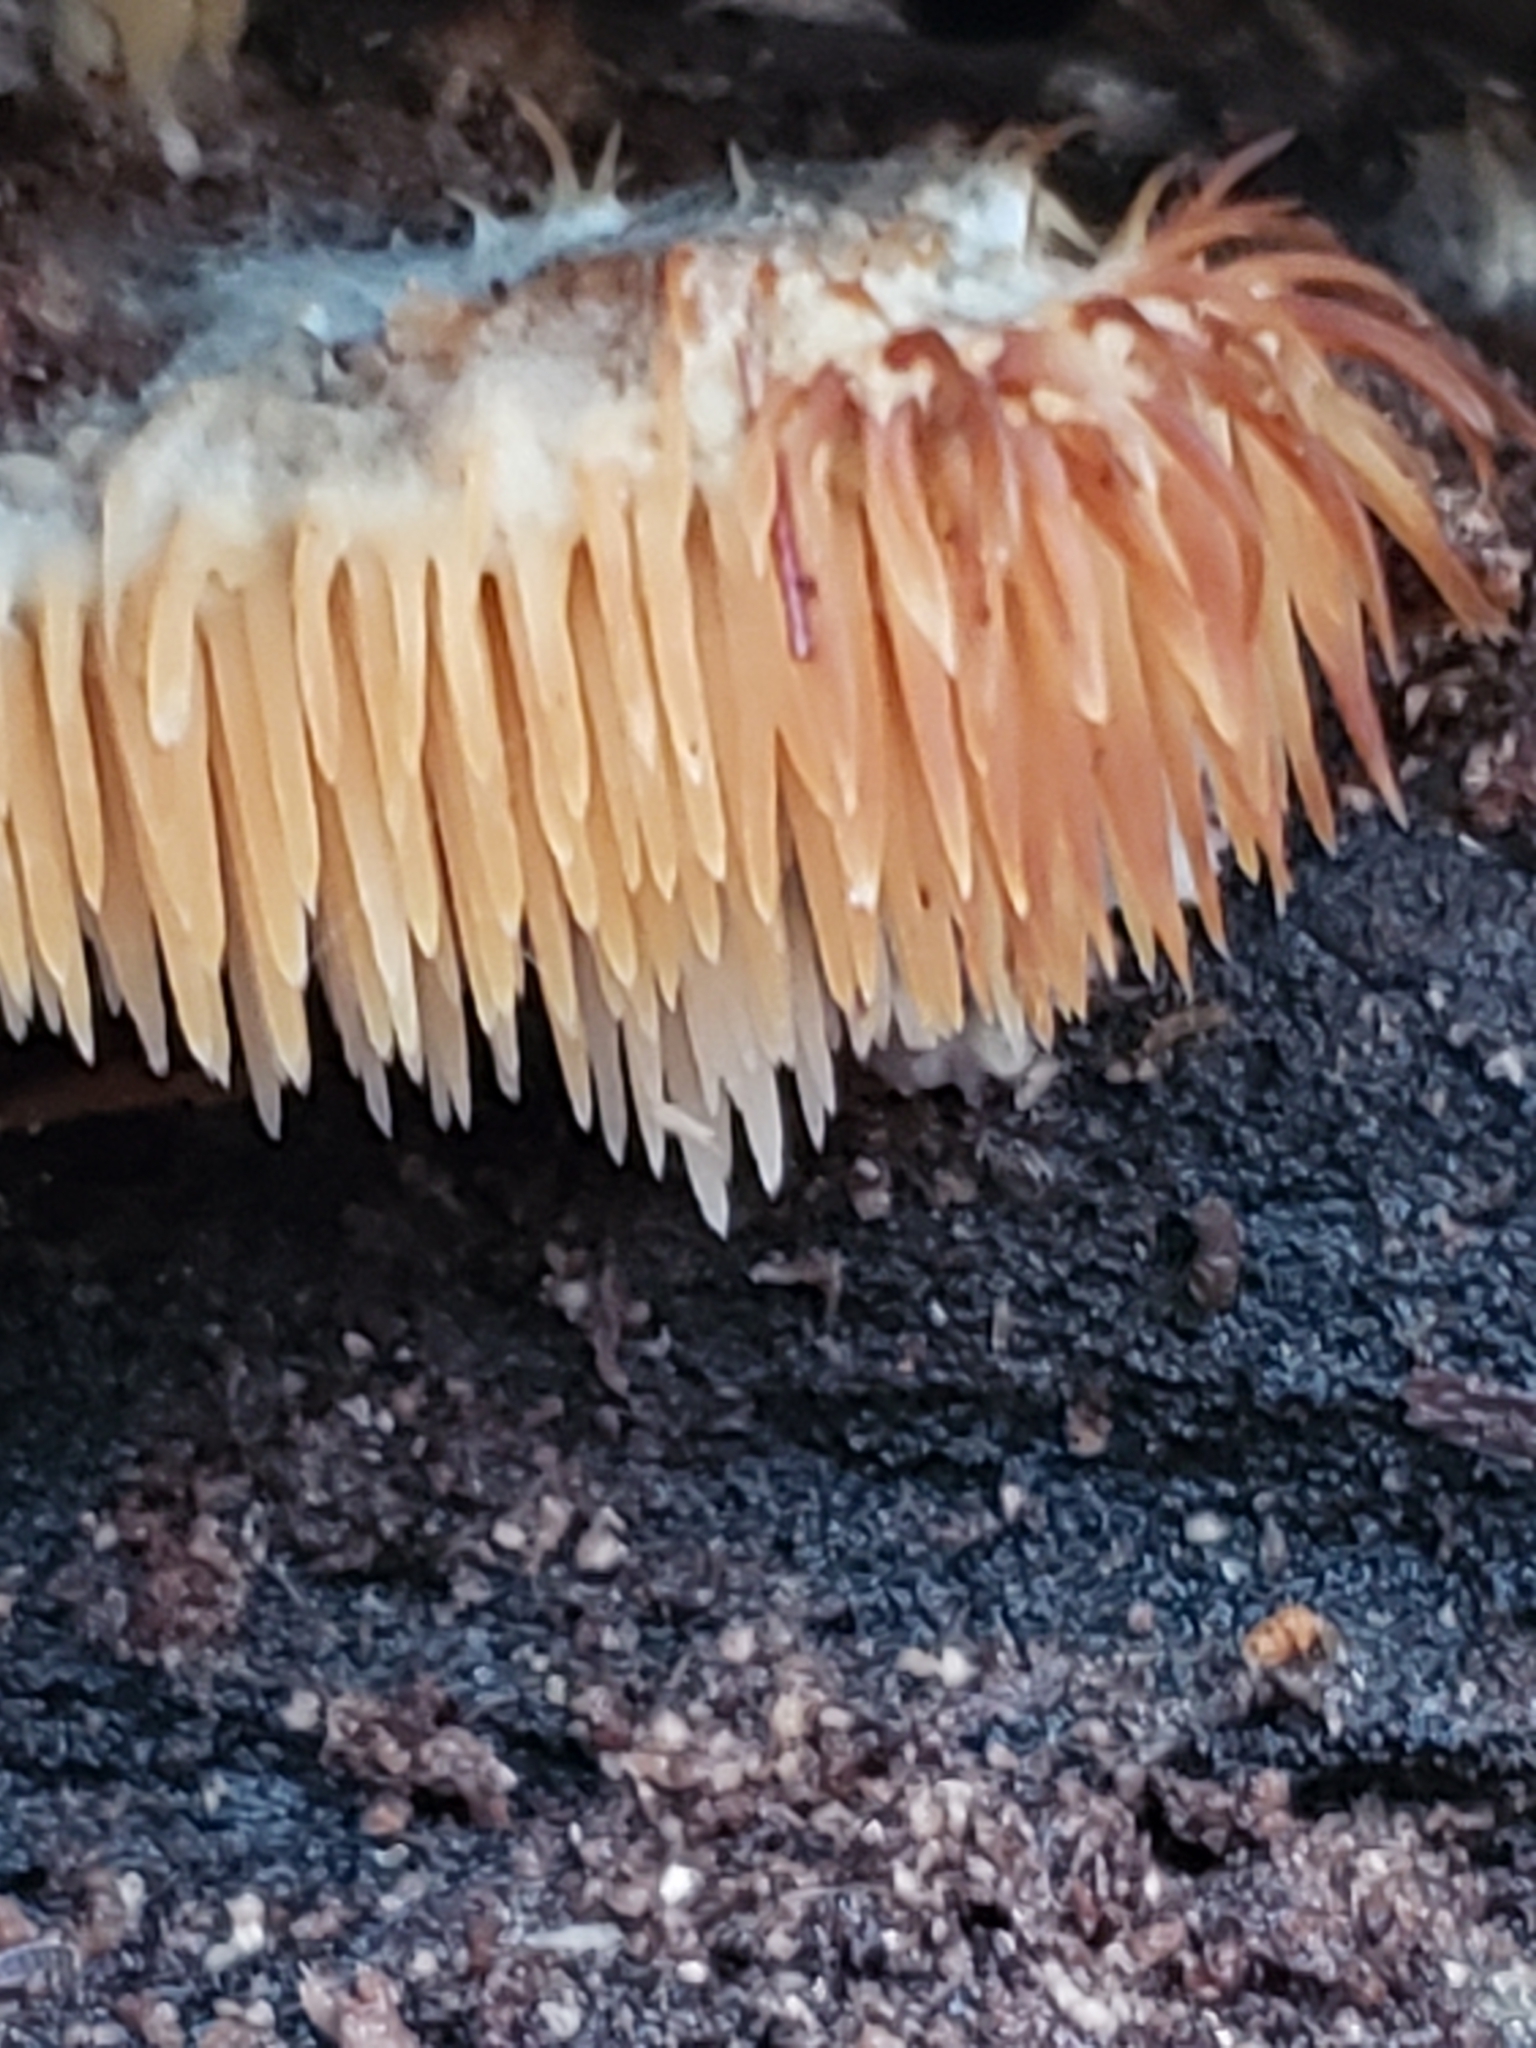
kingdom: Fungi
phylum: Basidiomycota
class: Agaricomycetes
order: Agaricales
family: Radulomycetaceae
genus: Radulomyces
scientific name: Radulomyces copelandii
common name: Asian beauty
